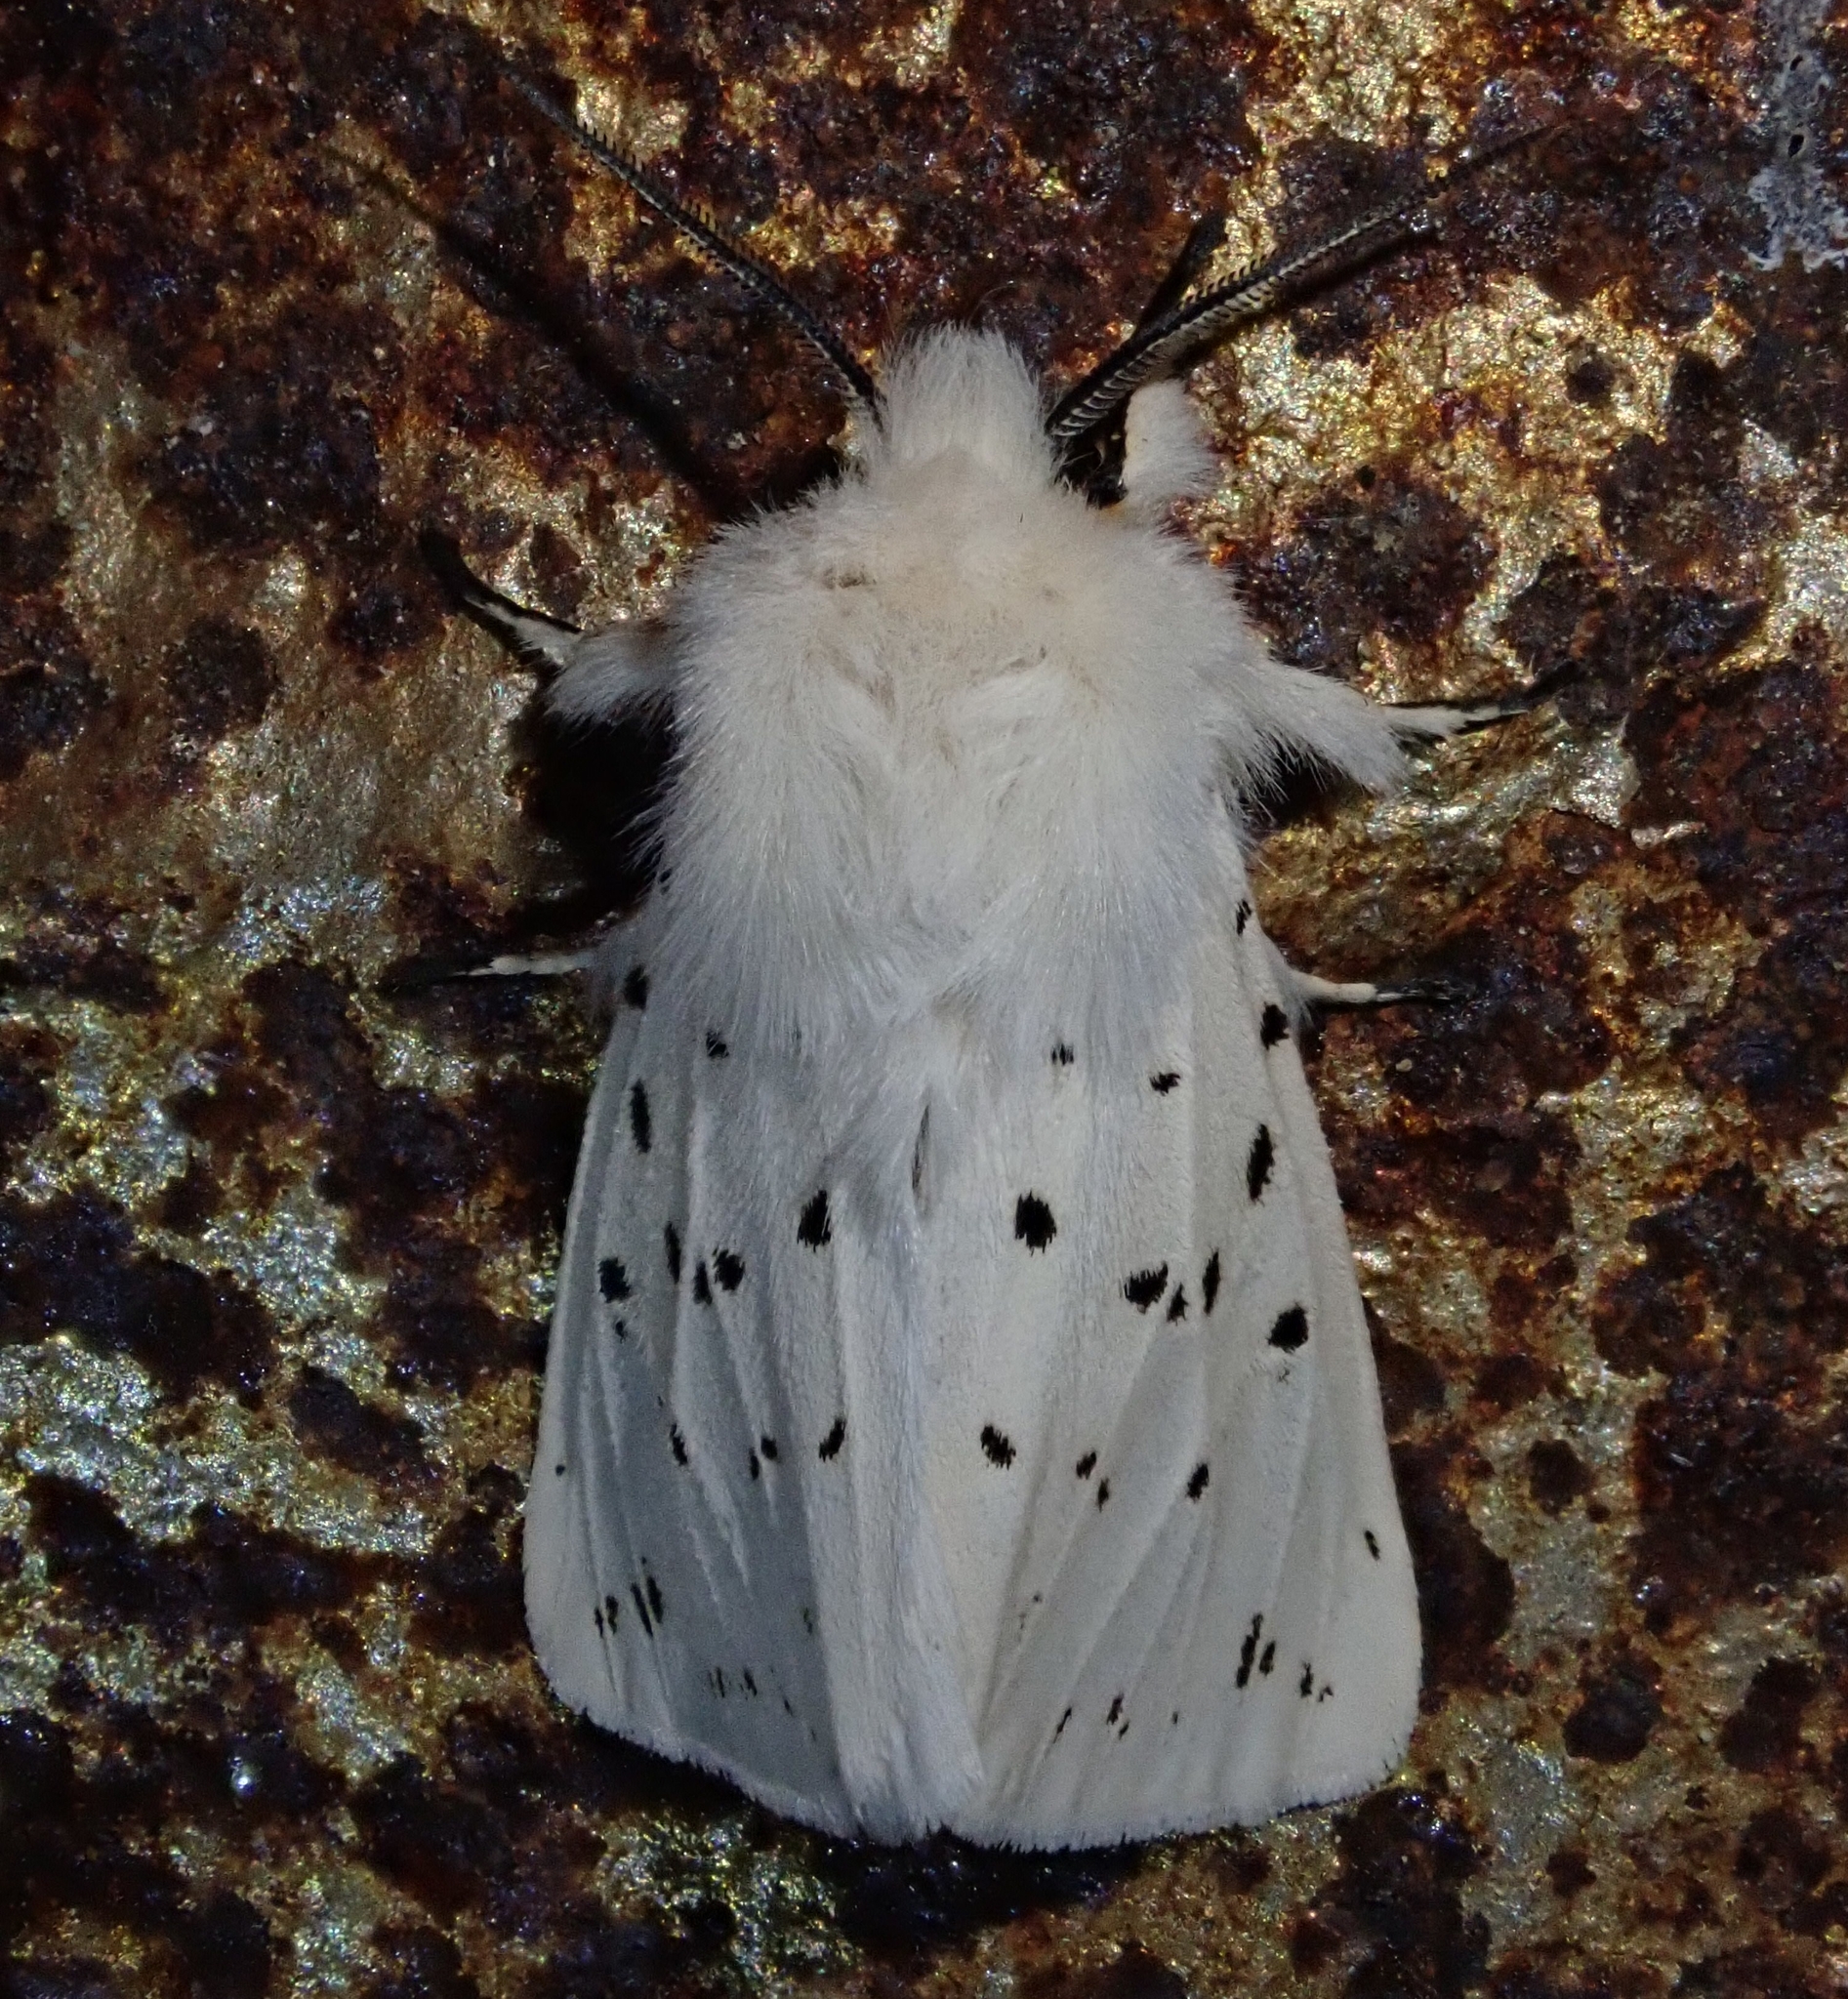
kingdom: Animalia
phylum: Arthropoda
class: Insecta
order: Lepidoptera
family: Erebidae
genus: Spilosoma
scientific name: Spilosoma lubricipeda
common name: White ermine
